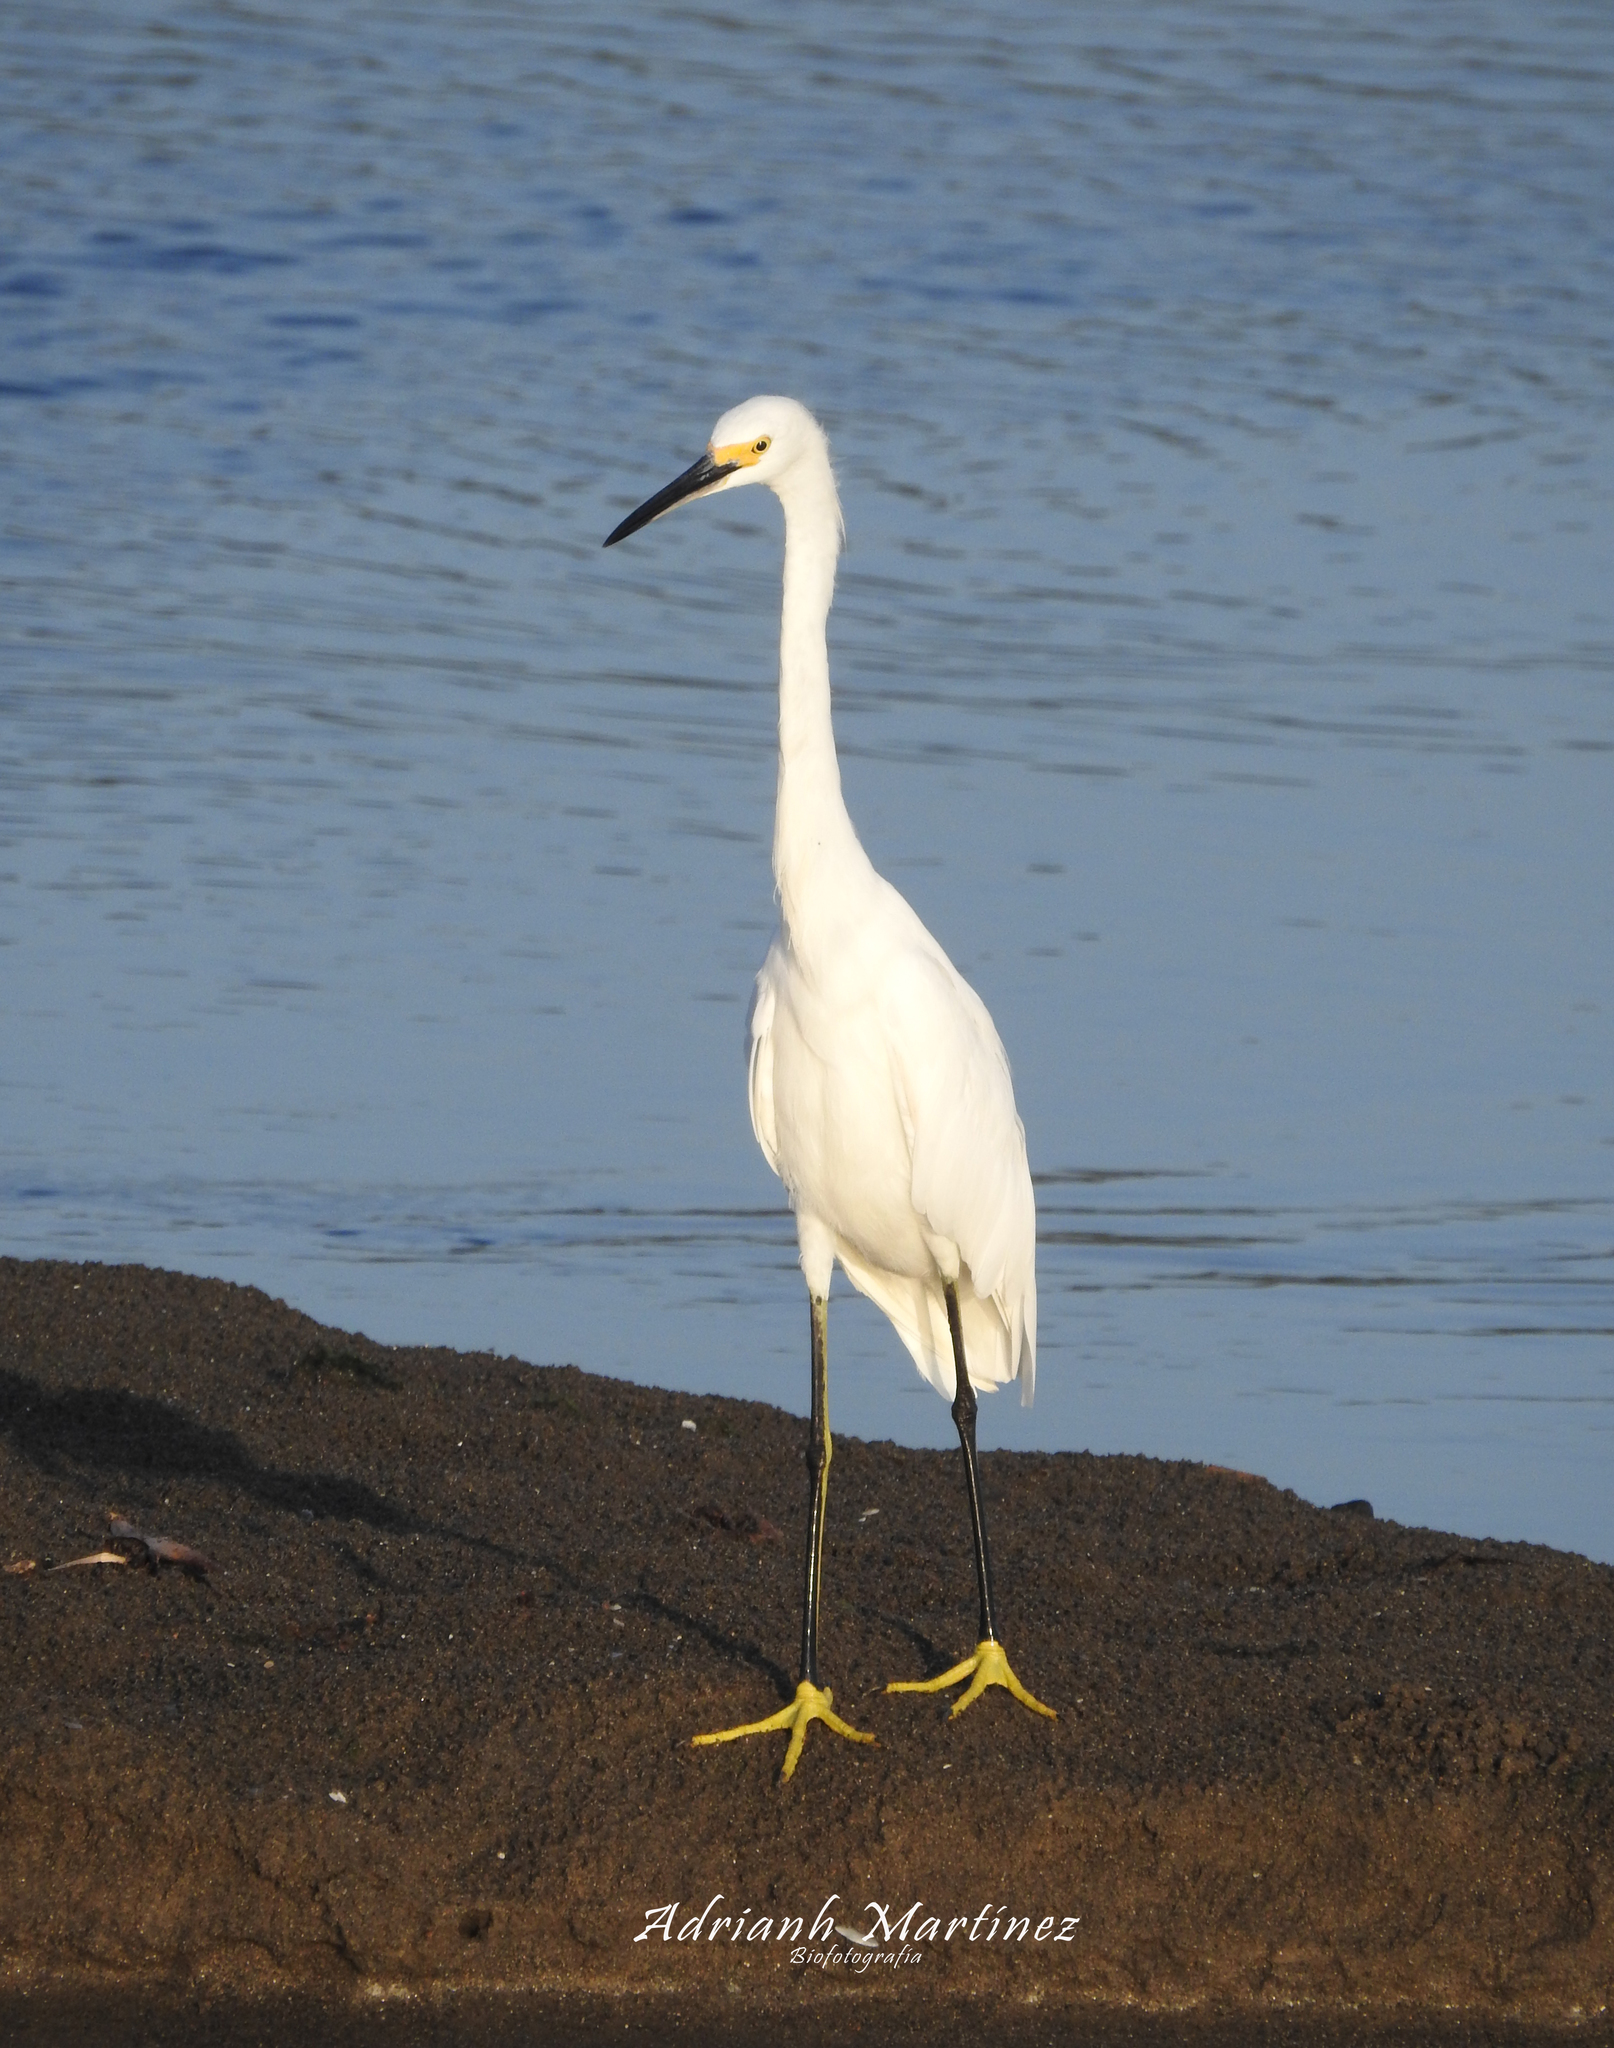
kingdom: Animalia
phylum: Chordata
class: Aves
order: Pelecaniformes
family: Ardeidae
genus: Egretta
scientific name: Egretta thula
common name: Snowy egret
